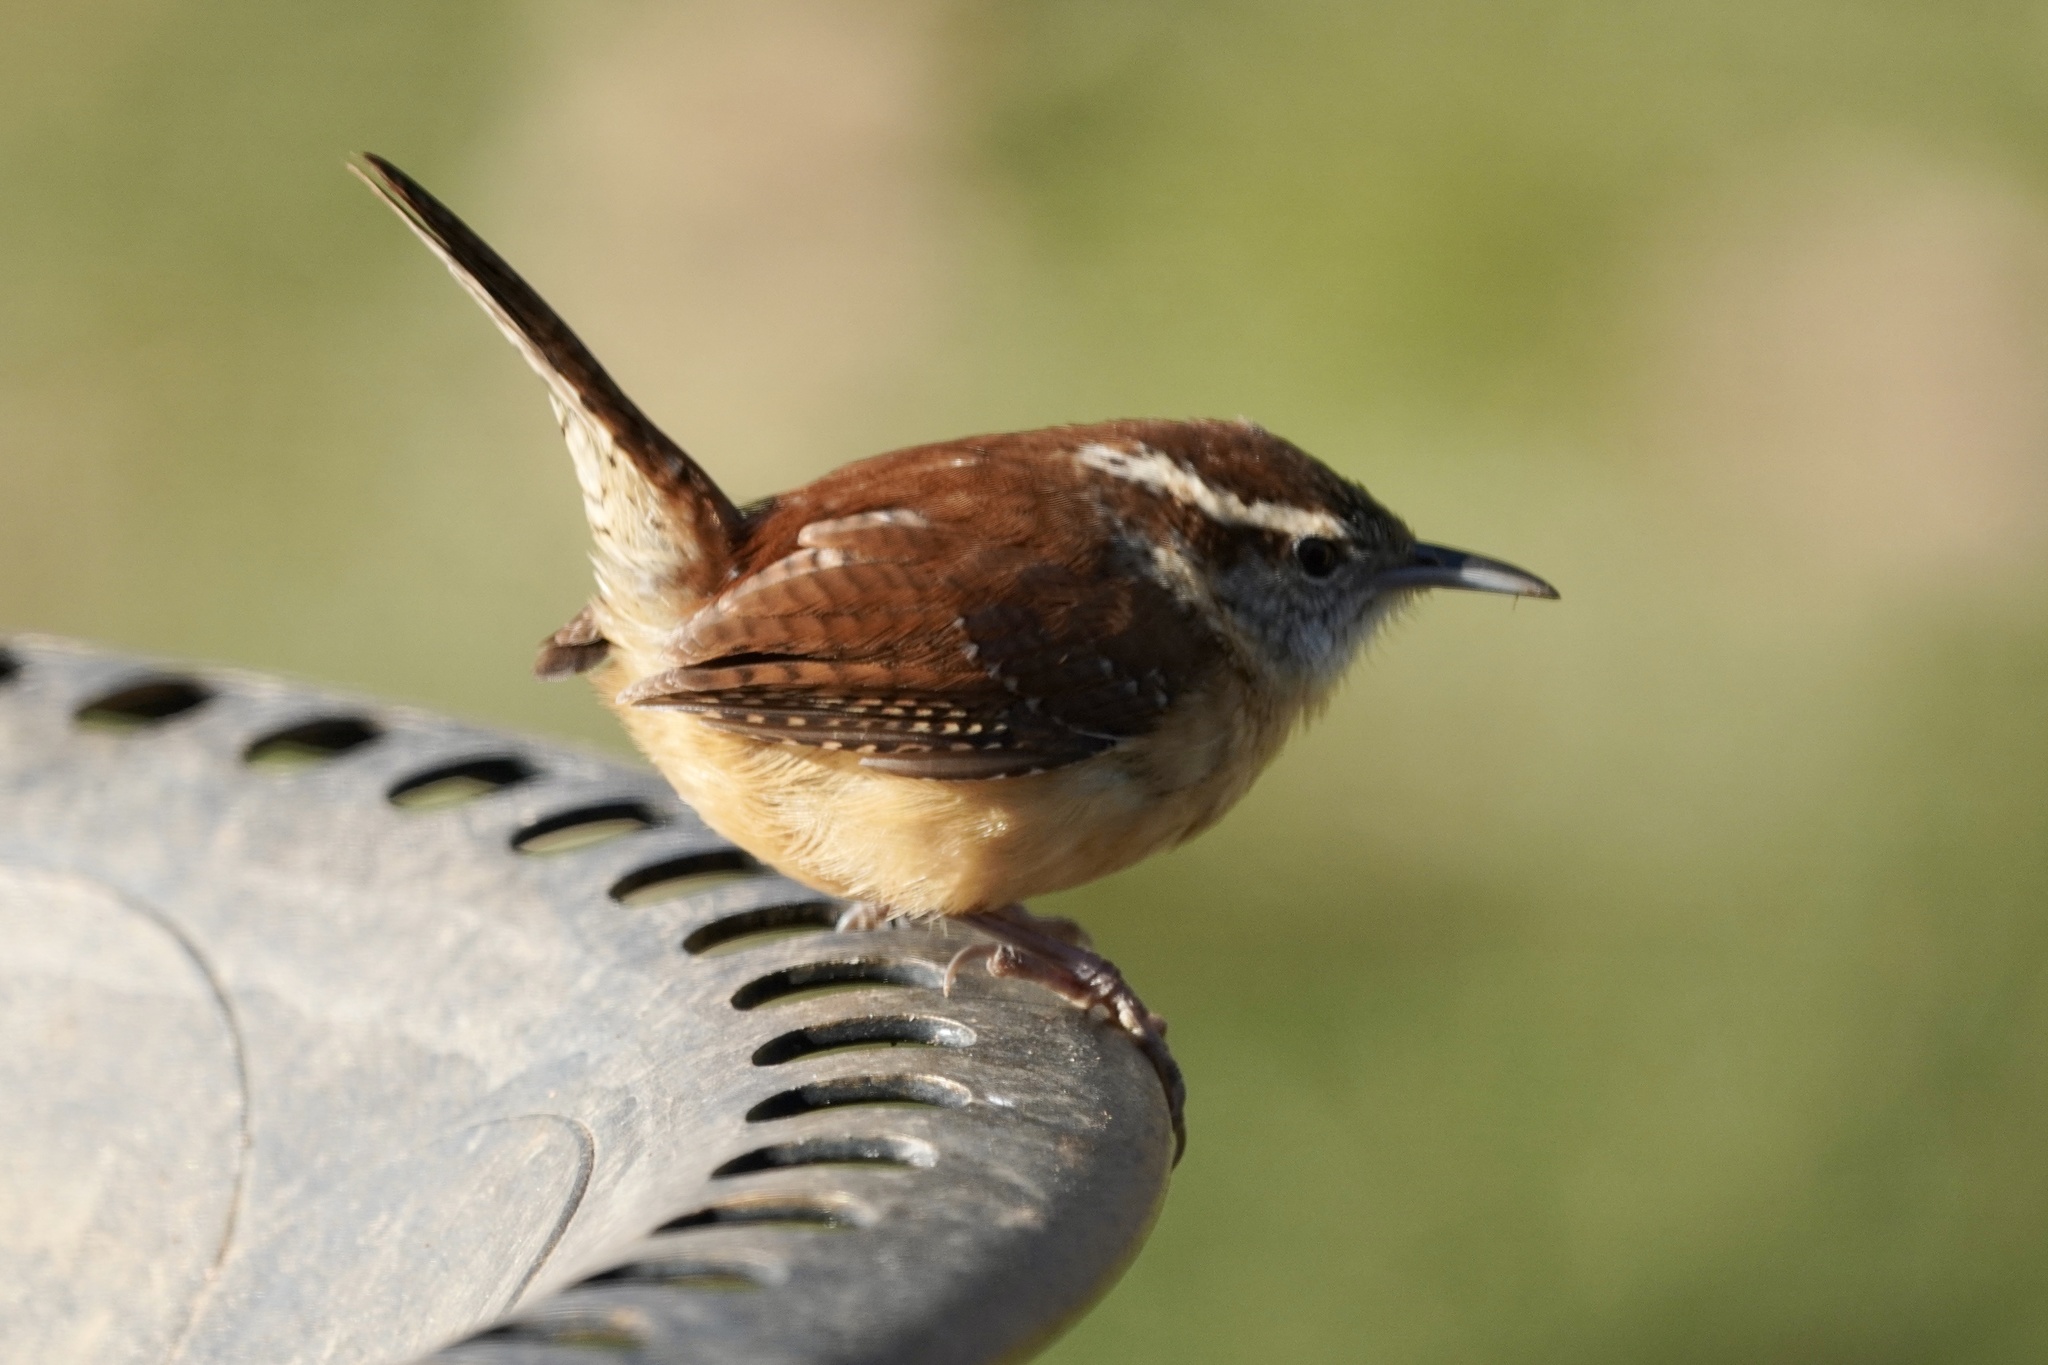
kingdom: Animalia
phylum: Chordata
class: Aves
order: Passeriformes
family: Troglodytidae
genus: Thryothorus
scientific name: Thryothorus ludovicianus
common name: Carolina wren
